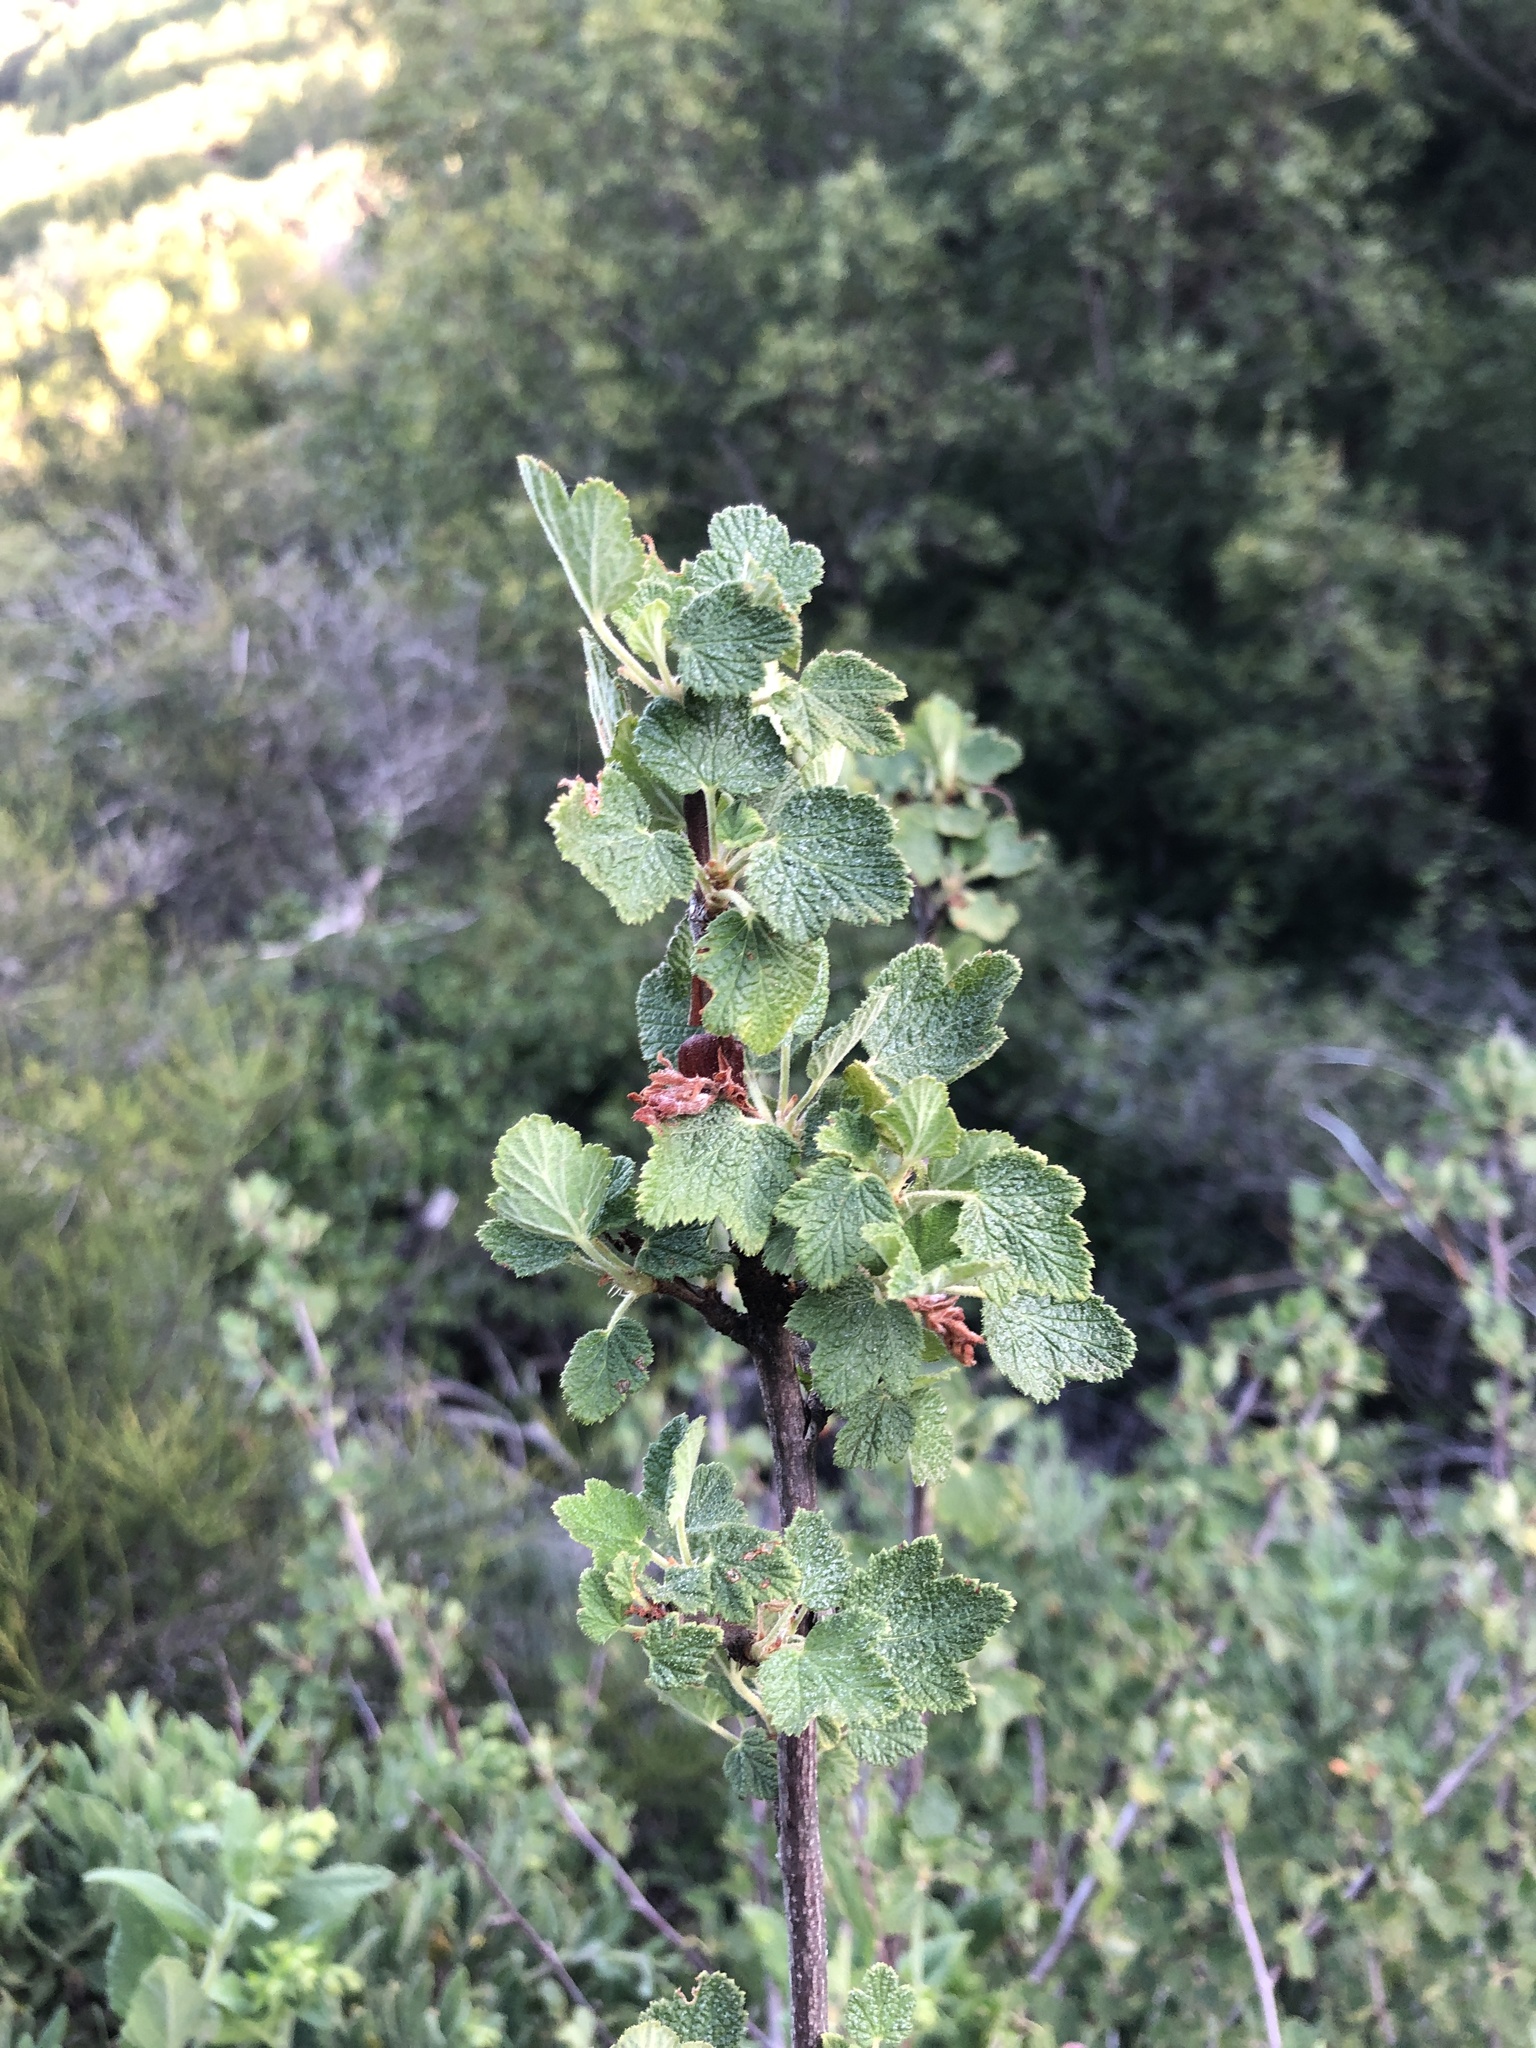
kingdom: Plantae
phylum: Tracheophyta
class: Magnoliopsida
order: Saxifragales
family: Grossulariaceae
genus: Ribes
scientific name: Ribes malvaceum
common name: Chaparral currant
